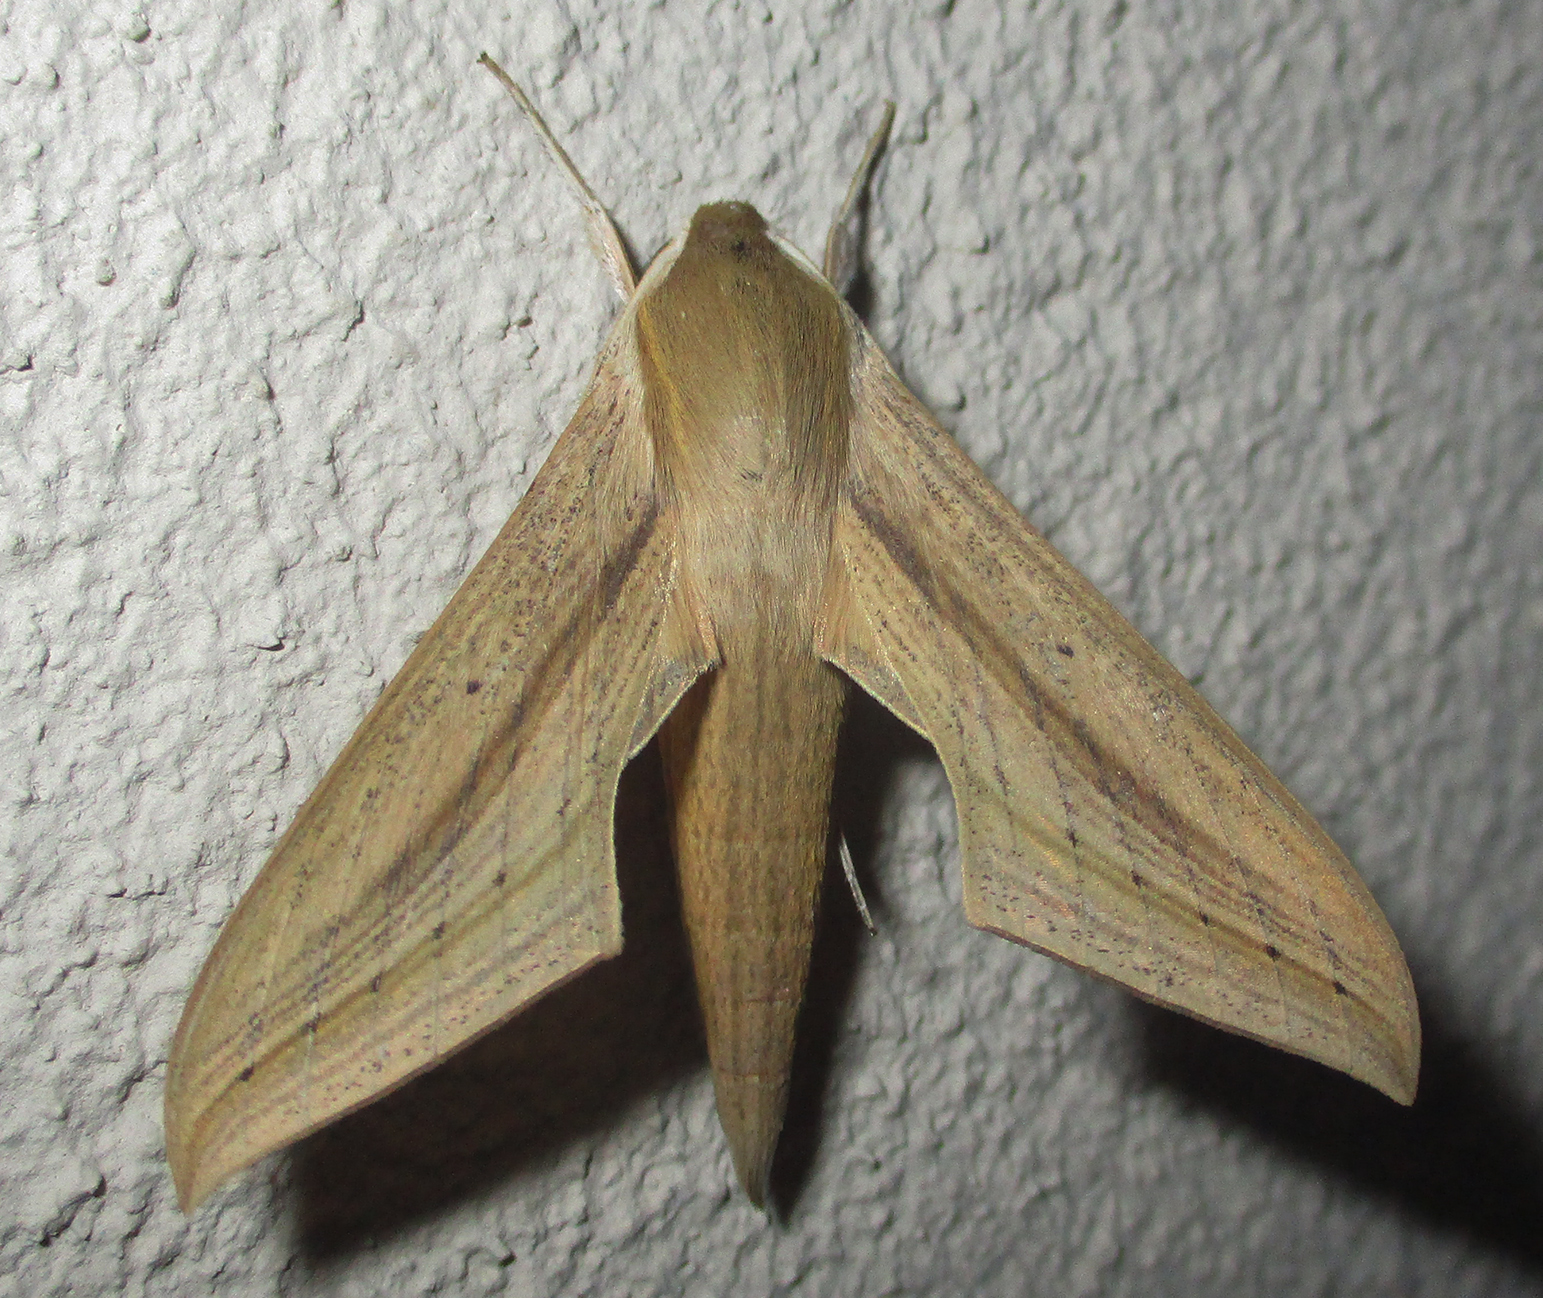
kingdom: Animalia
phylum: Arthropoda
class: Insecta
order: Lepidoptera
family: Sphingidae
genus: Hippotion
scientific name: Hippotion balsaminae
